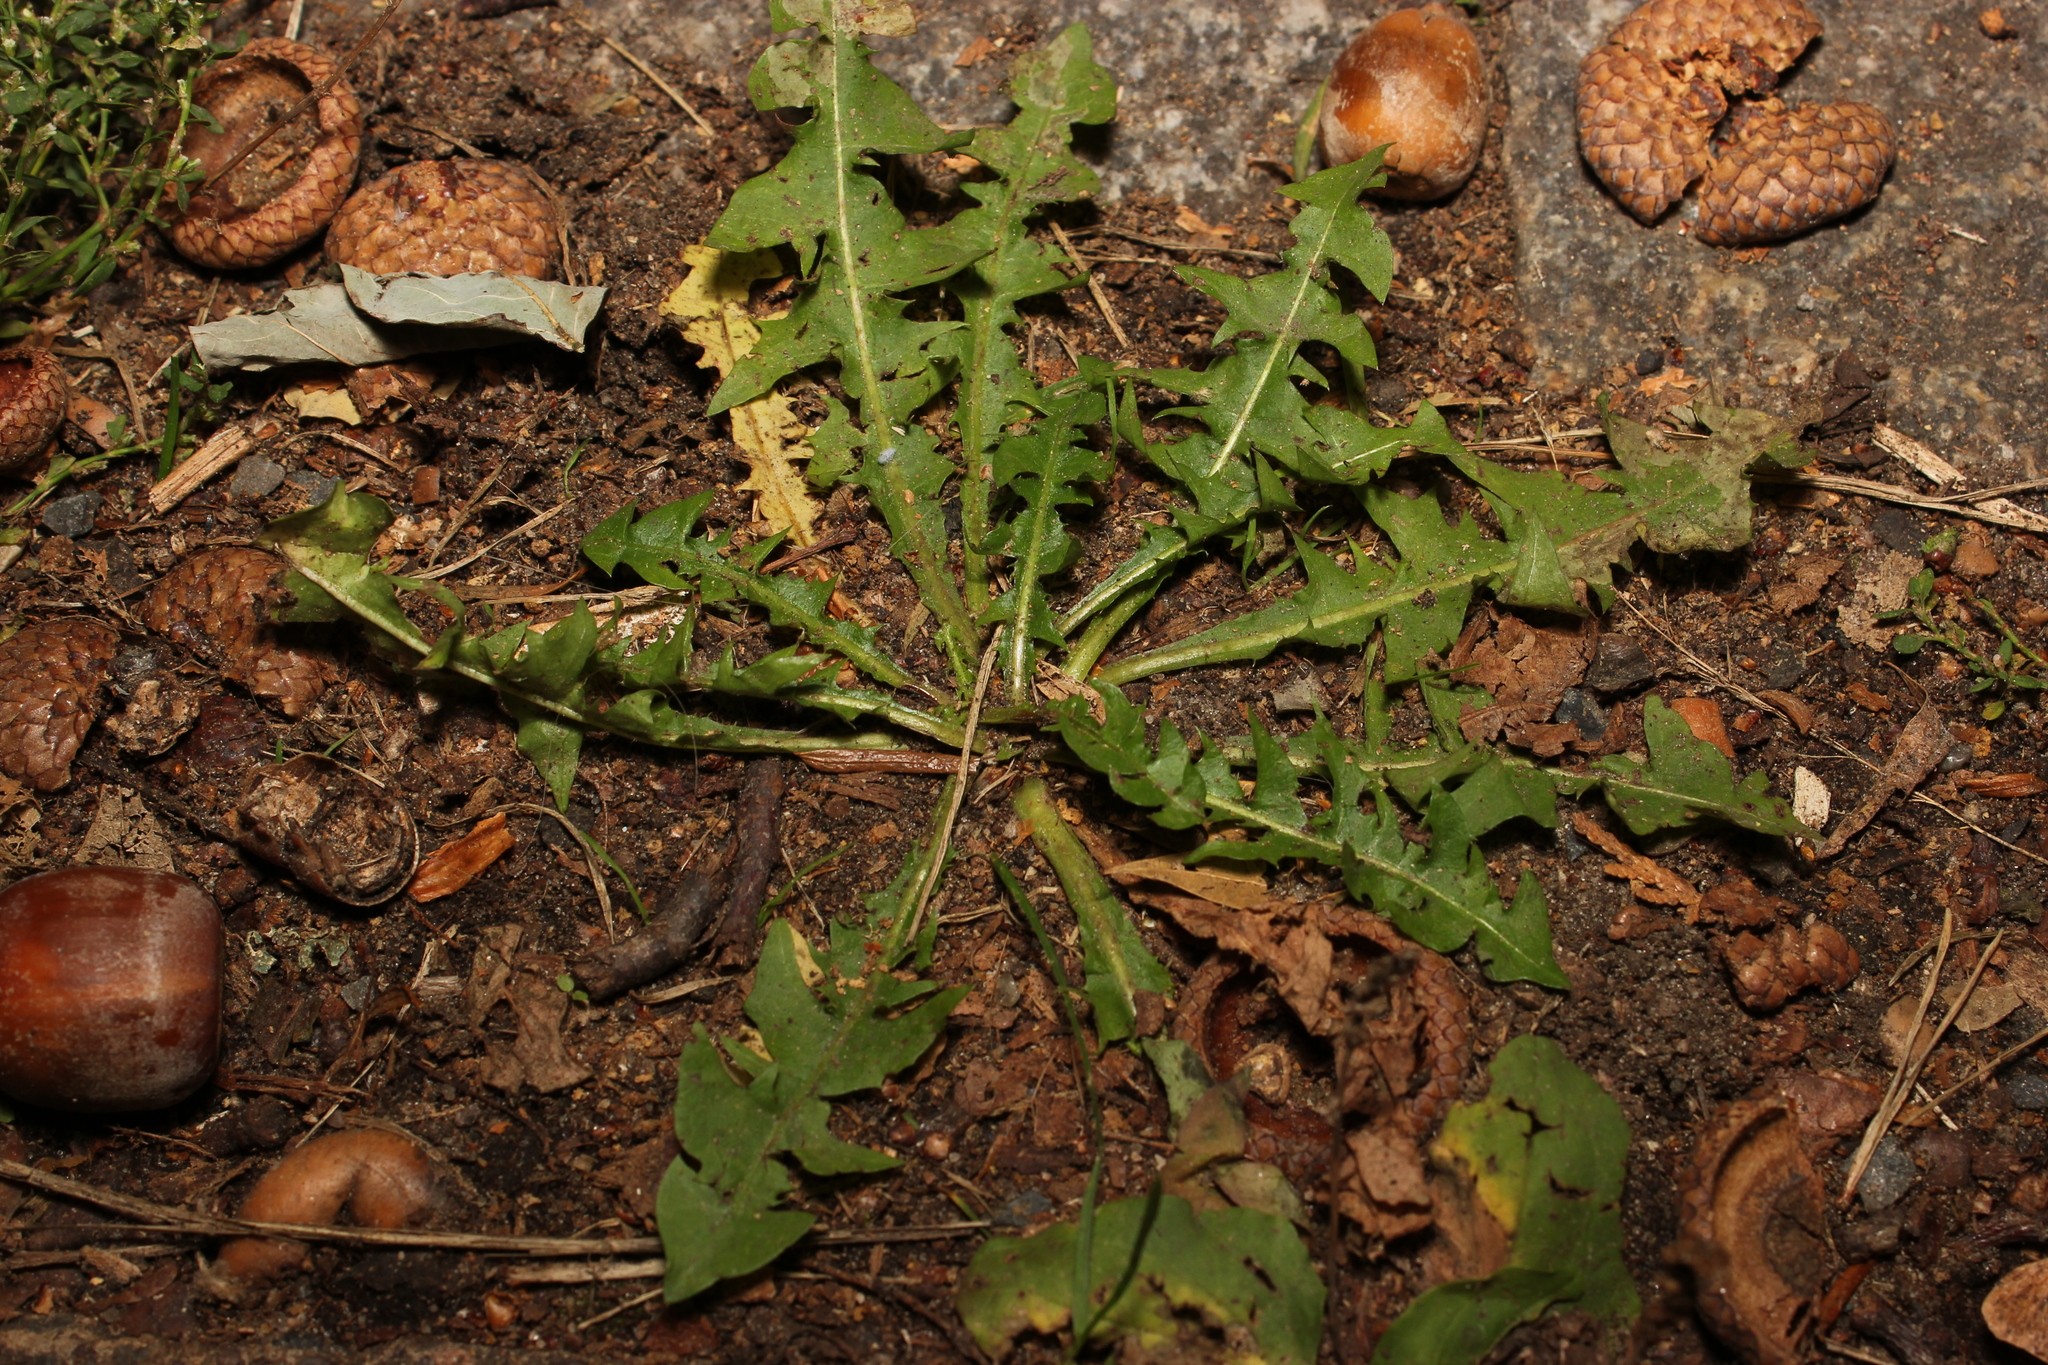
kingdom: Plantae
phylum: Tracheophyta
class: Magnoliopsida
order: Asterales
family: Asteraceae
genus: Taraxacum
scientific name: Taraxacum officinale
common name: Common dandelion
